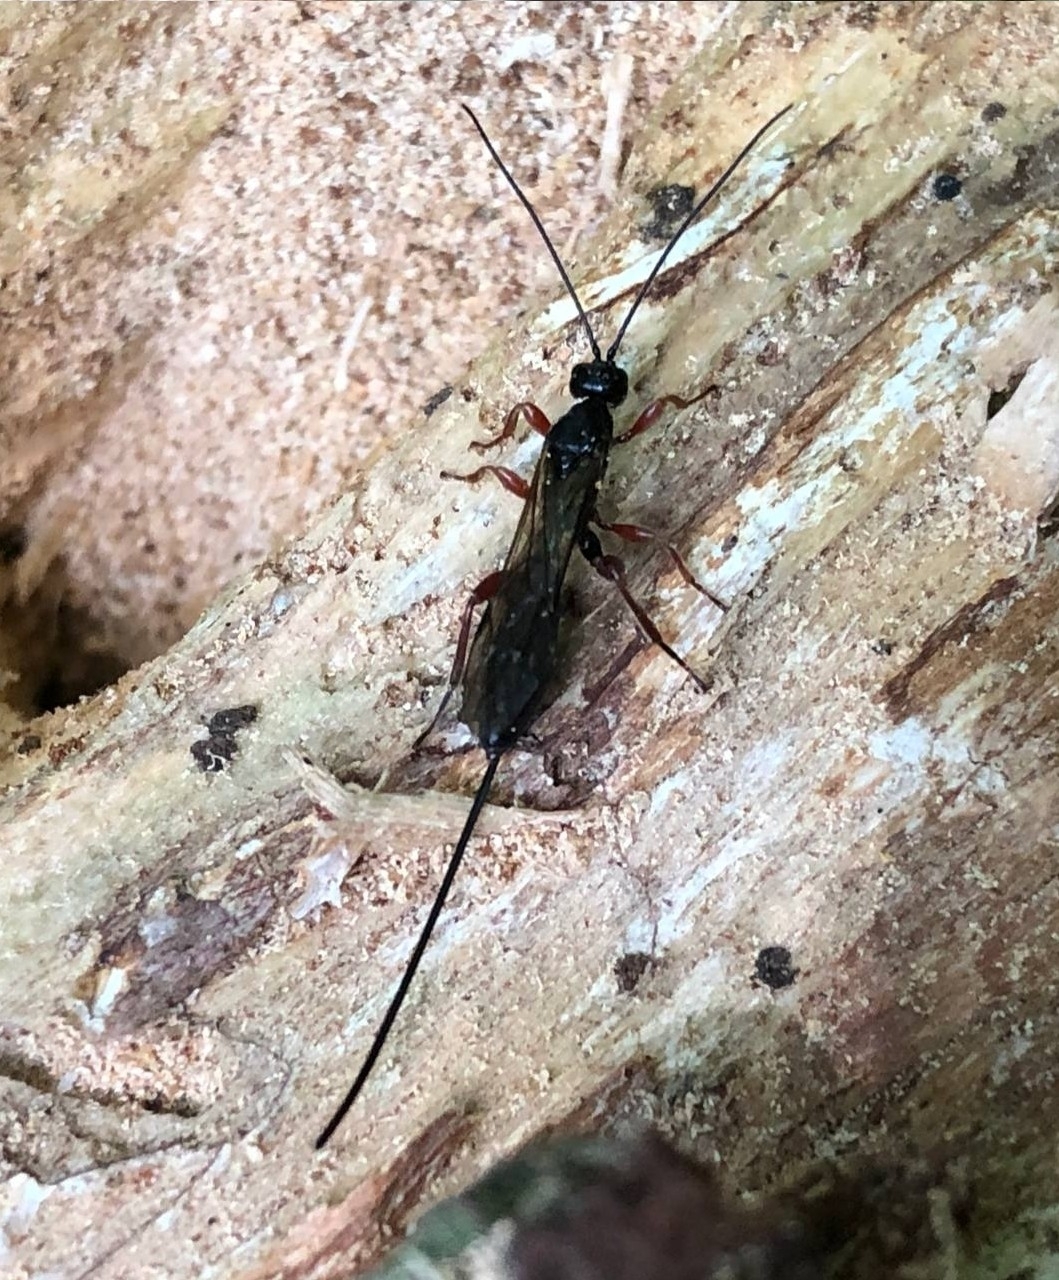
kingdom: Animalia
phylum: Arthropoda
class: Insecta
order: Hymenoptera
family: Ichneumonidae
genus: Odontocolon
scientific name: Odontocolon dentipes
